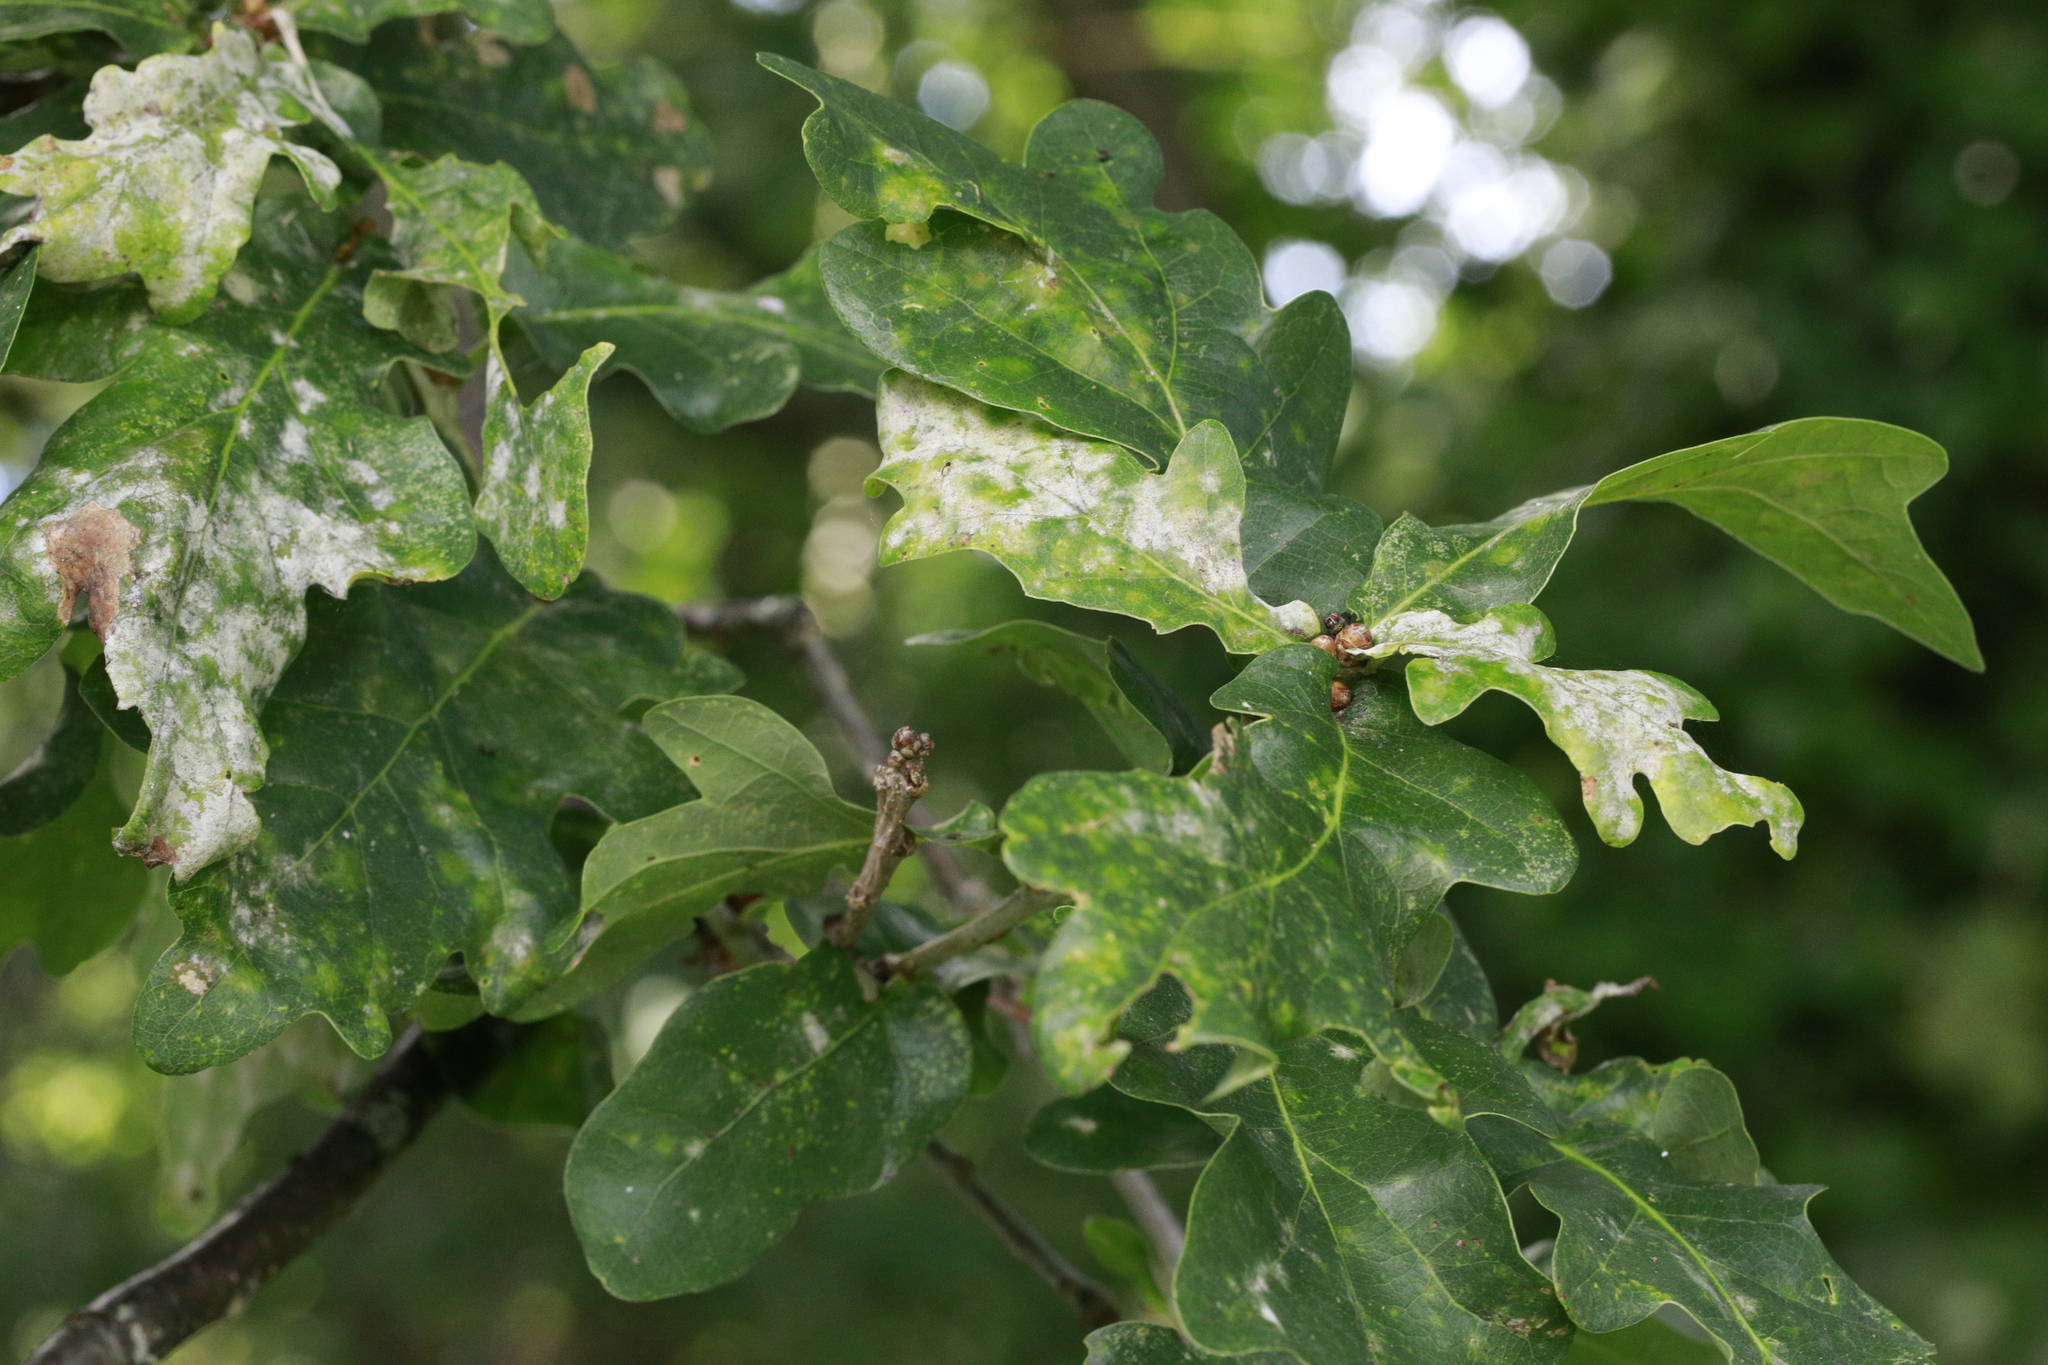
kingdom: Fungi
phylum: Ascomycota
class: Leotiomycetes
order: Helotiales
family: Erysiphaceae
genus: Erysiphe
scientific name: Erysiphe alphitoides
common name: Oak mildew
